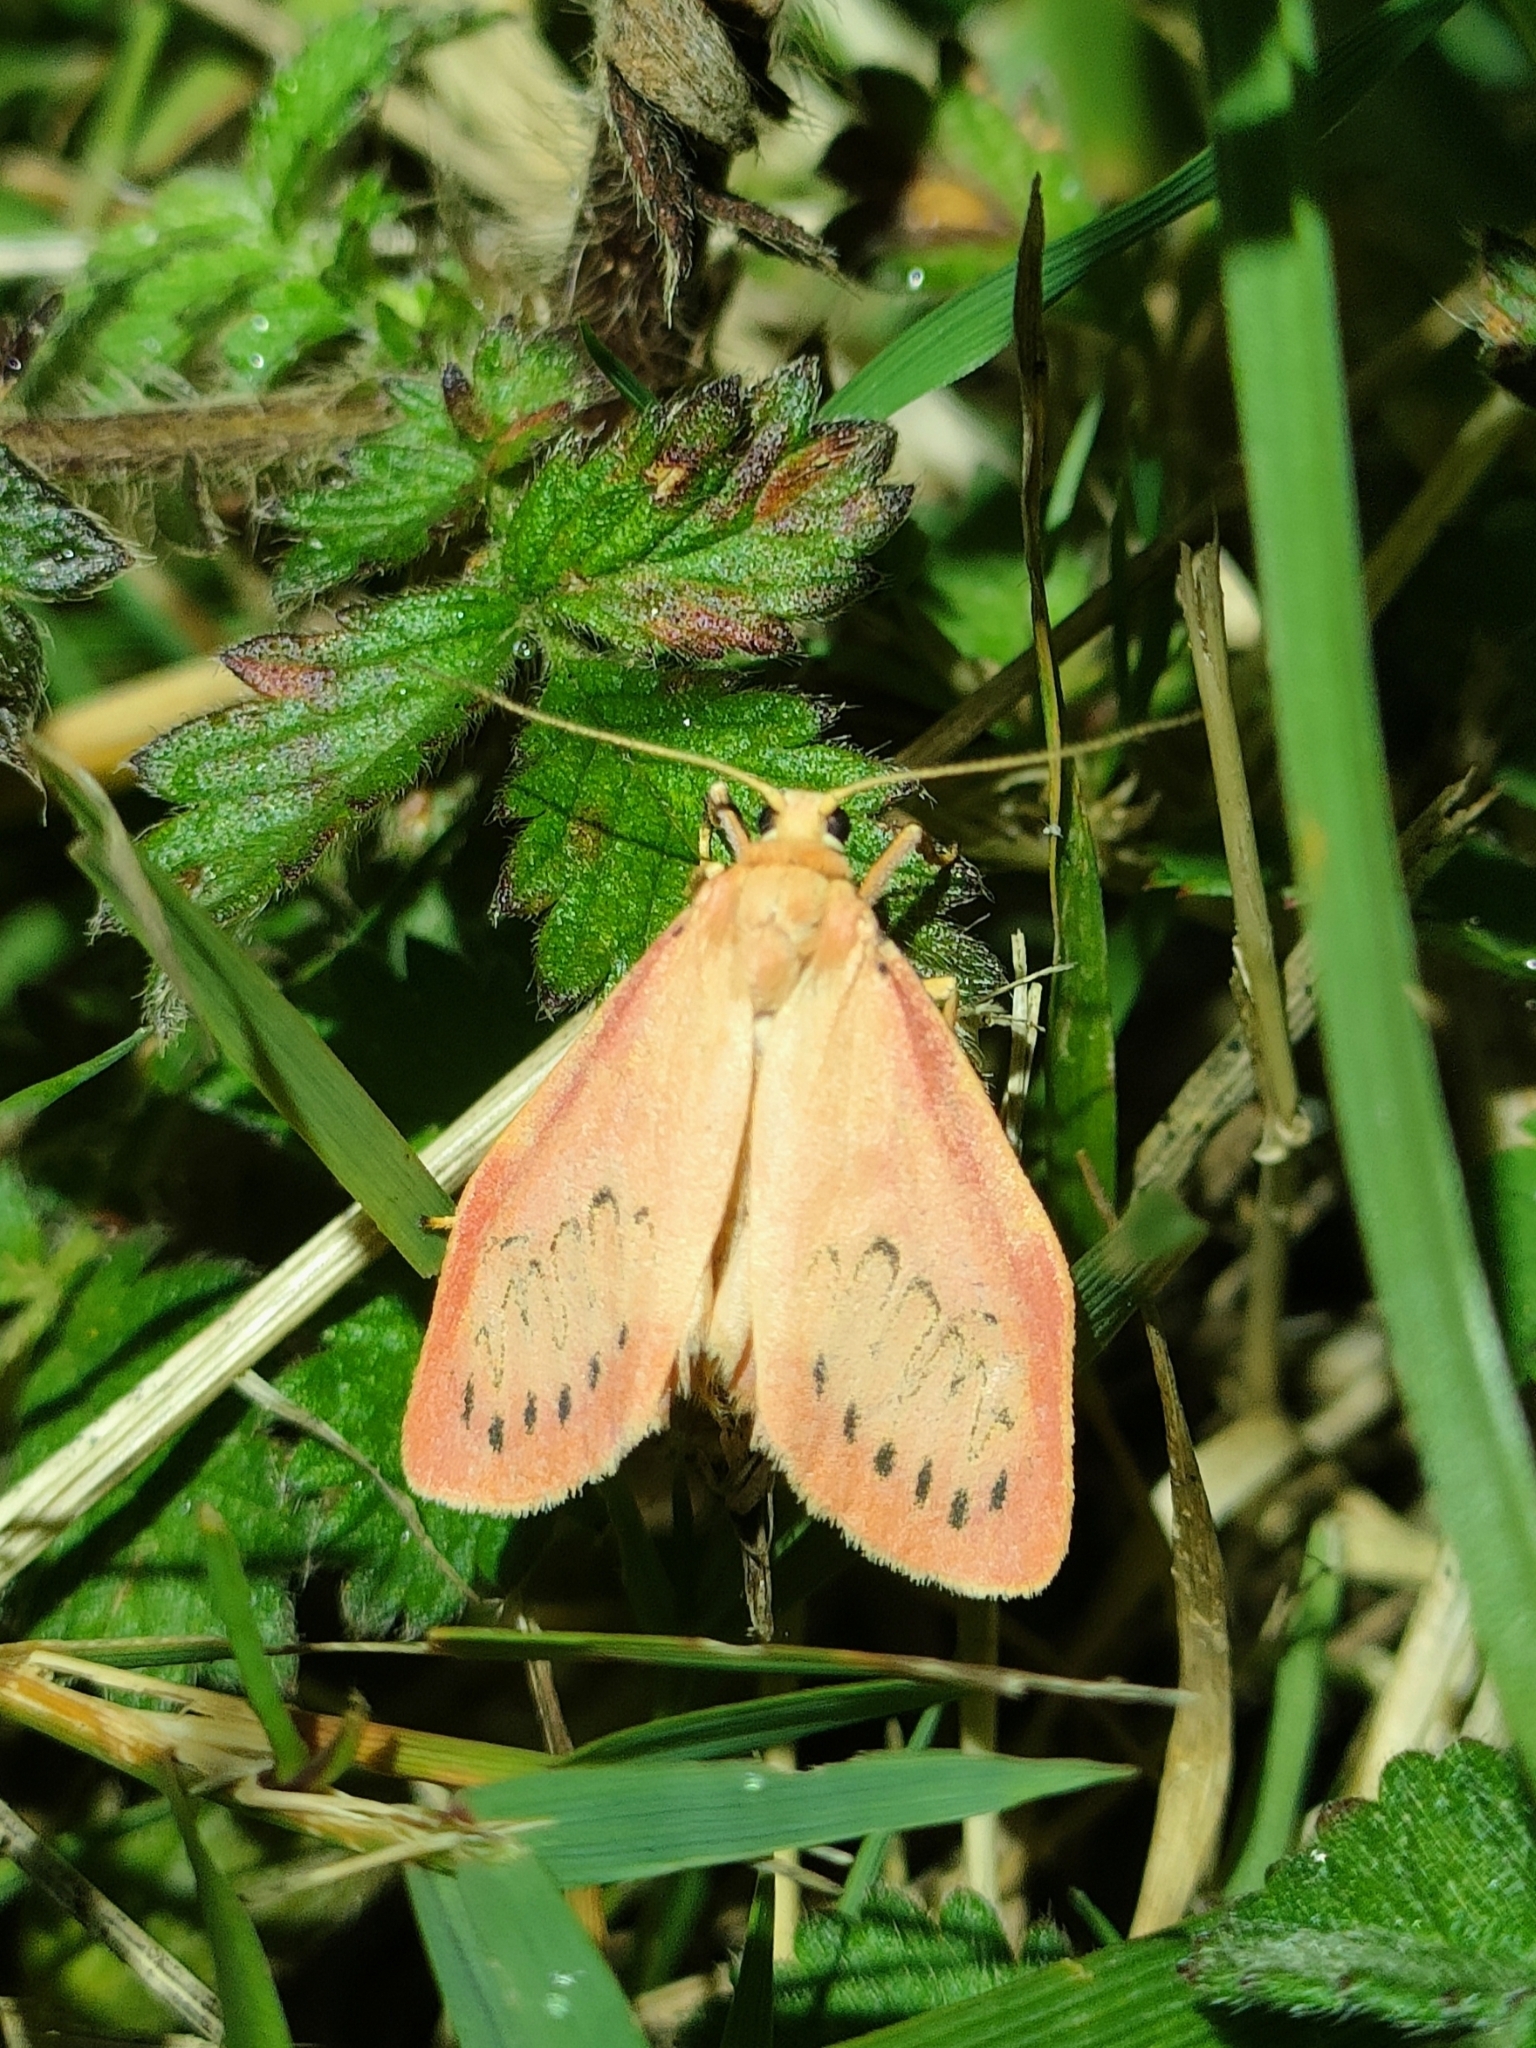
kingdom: Animalia
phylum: Arthropoda
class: Insecta
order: Lepidoptera
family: Erebidae
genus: Miltochrista
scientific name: Miltochrista miniata
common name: Rosy footman
